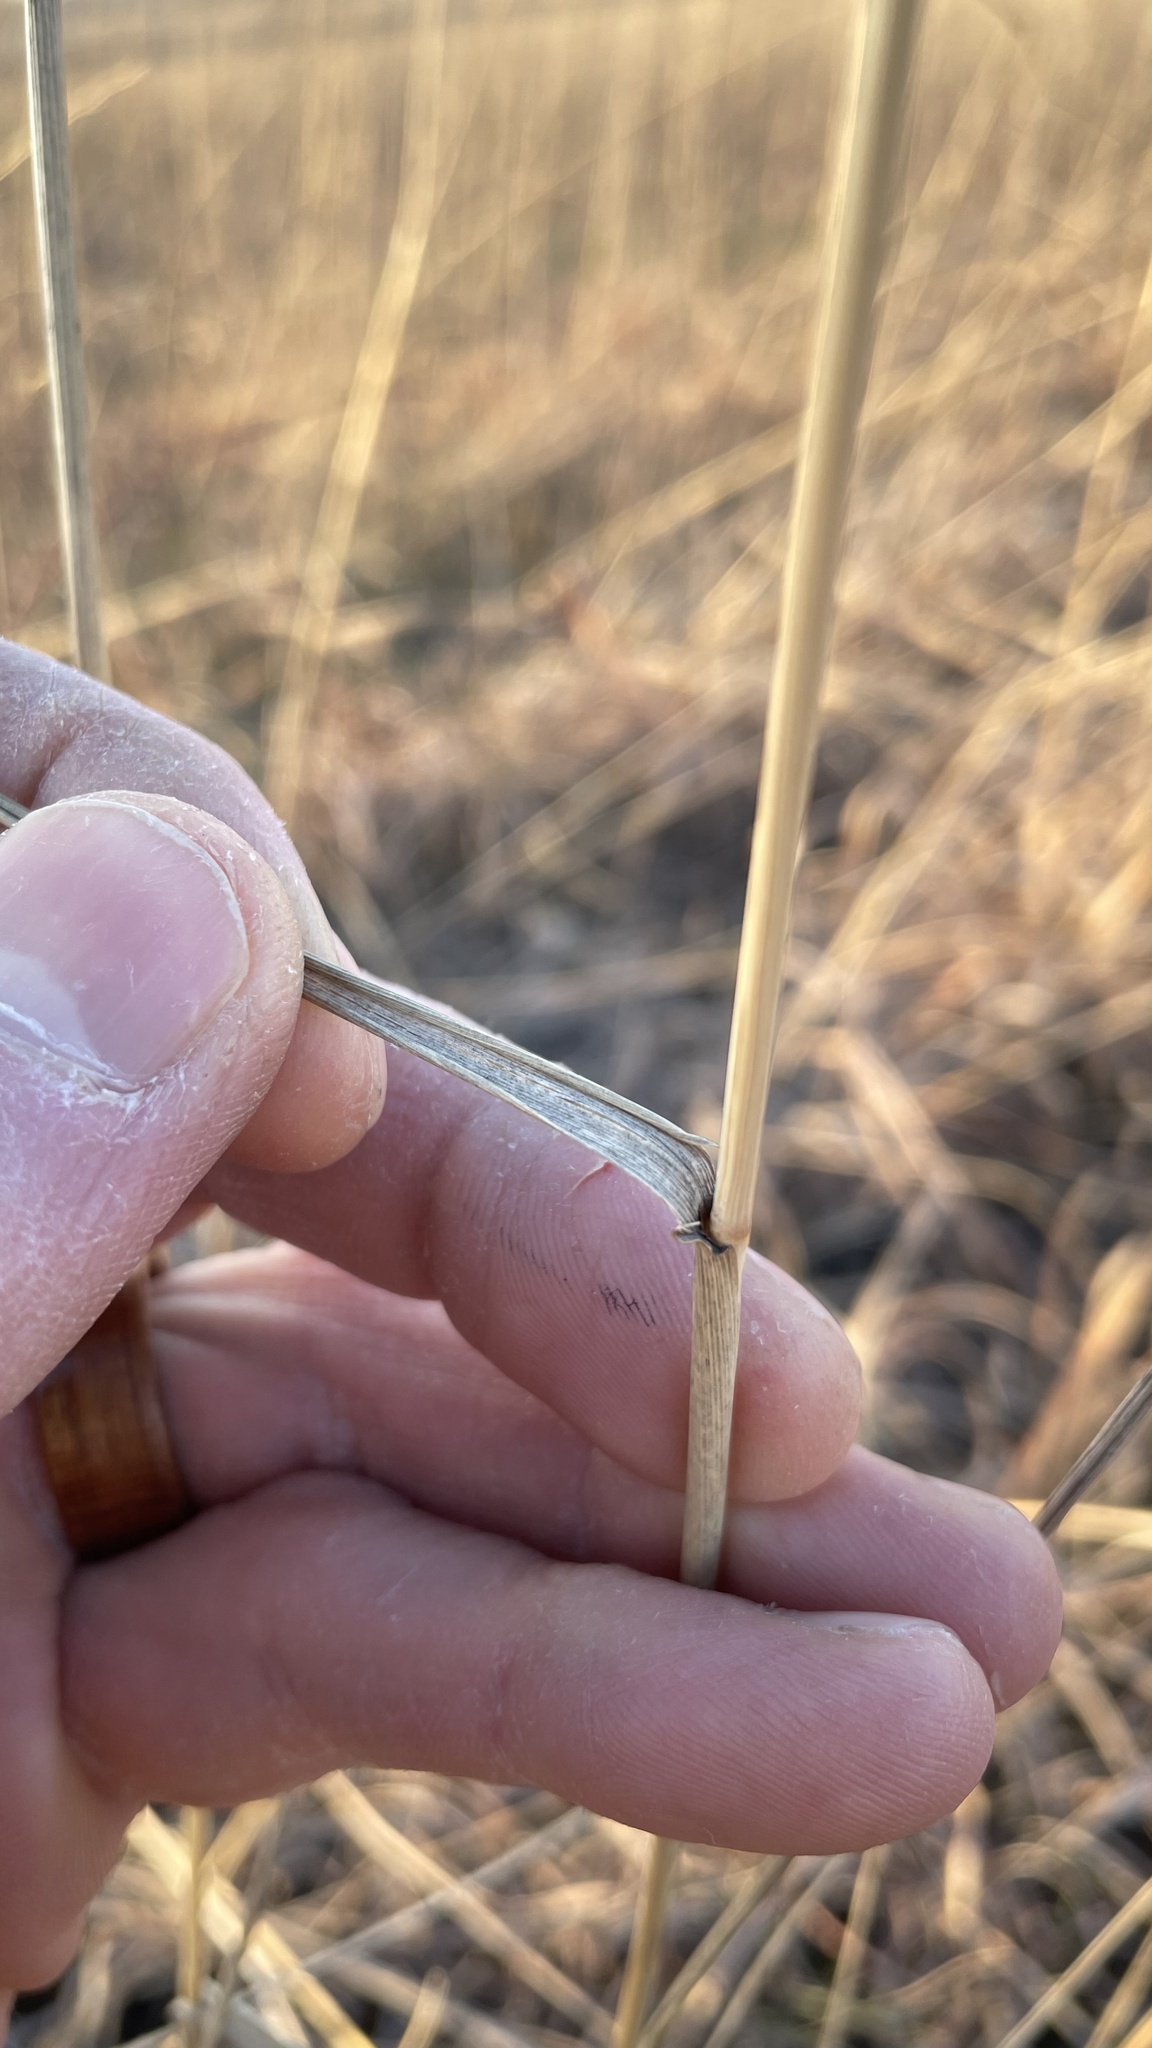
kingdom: Plantae
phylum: Tracheophyta
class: Liliopsida
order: Poales
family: Poaceae
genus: Elymus
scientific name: Elymus canadensis
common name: Canada wild rye
